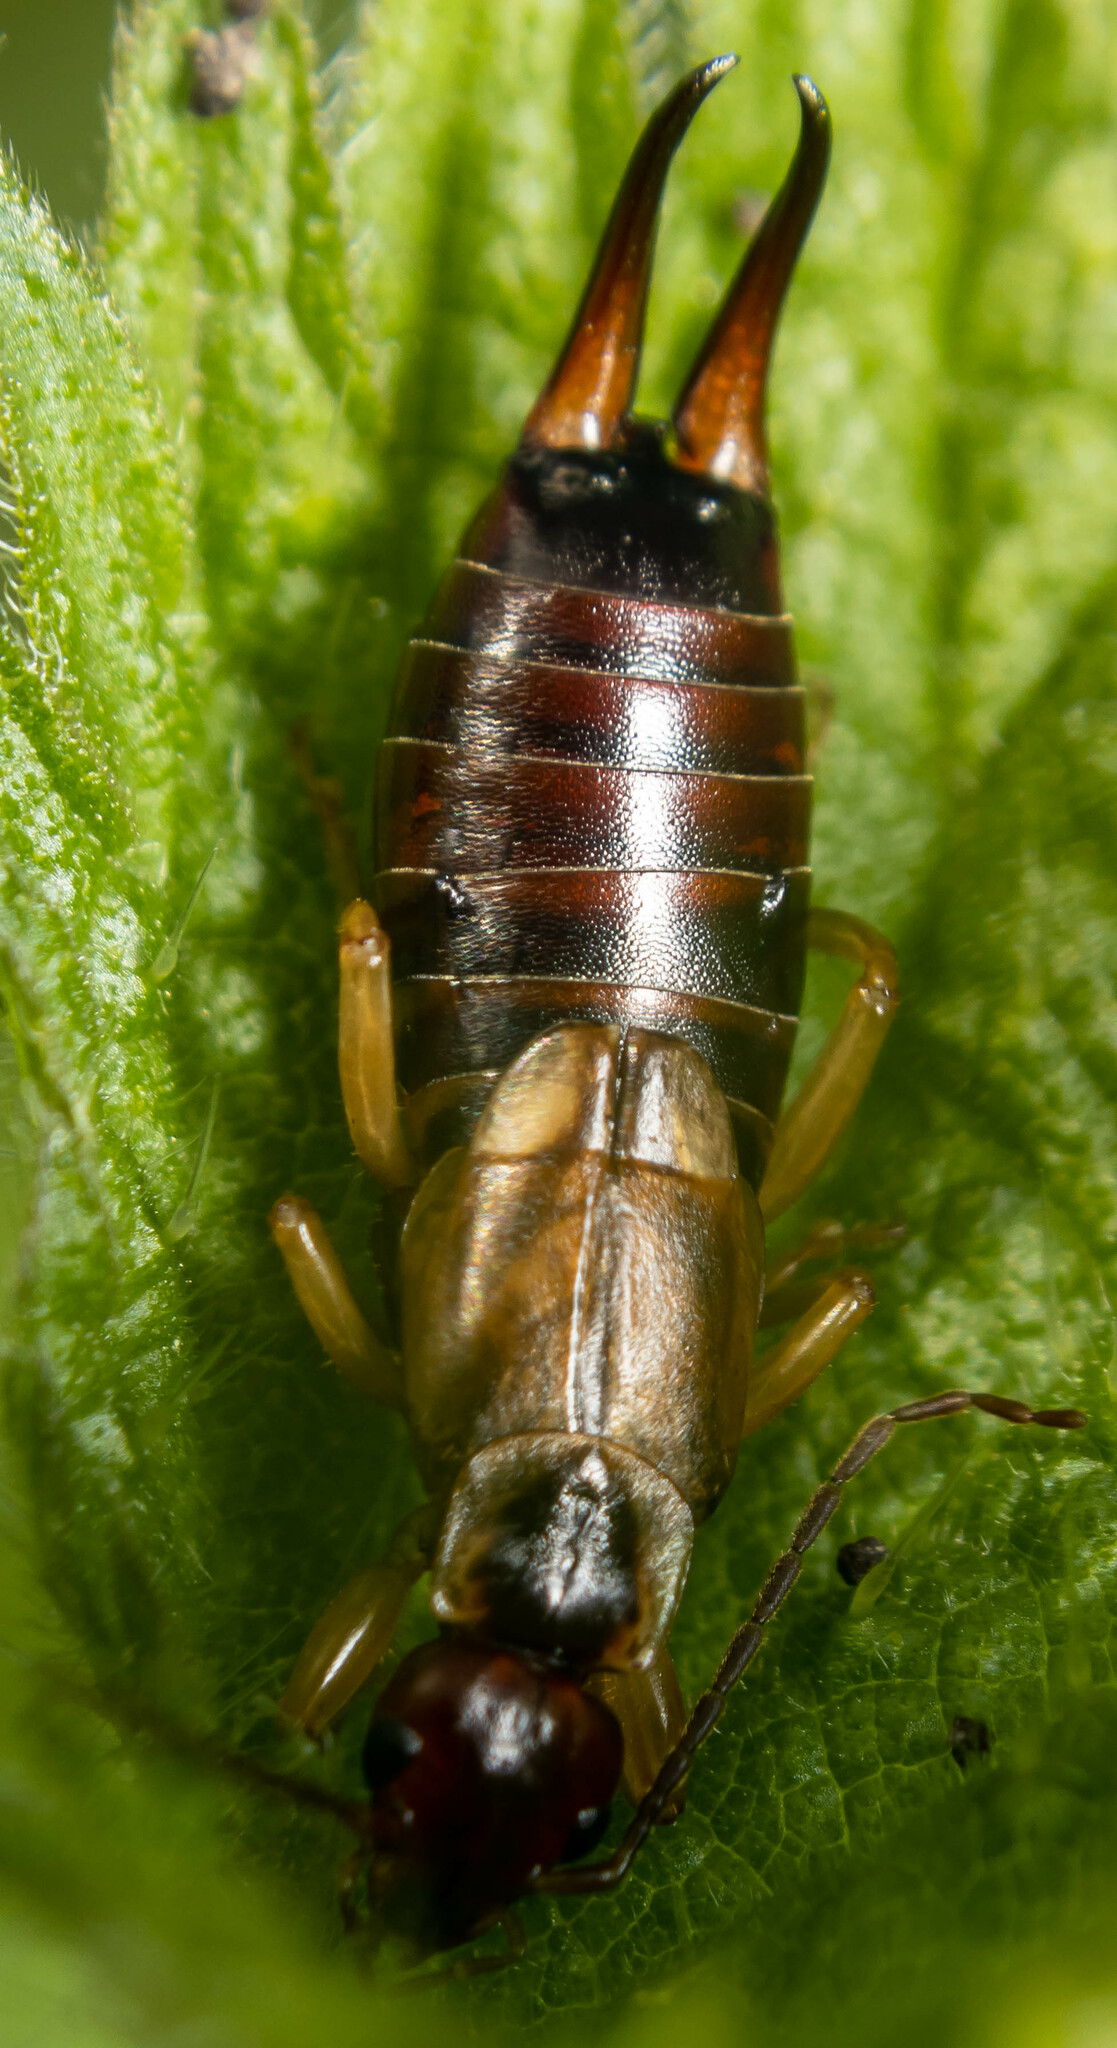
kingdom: Animalia
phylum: Arthropoda
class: Insecta
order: Dermaptera
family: Forficulidae
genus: Forficula
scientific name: Forficula
